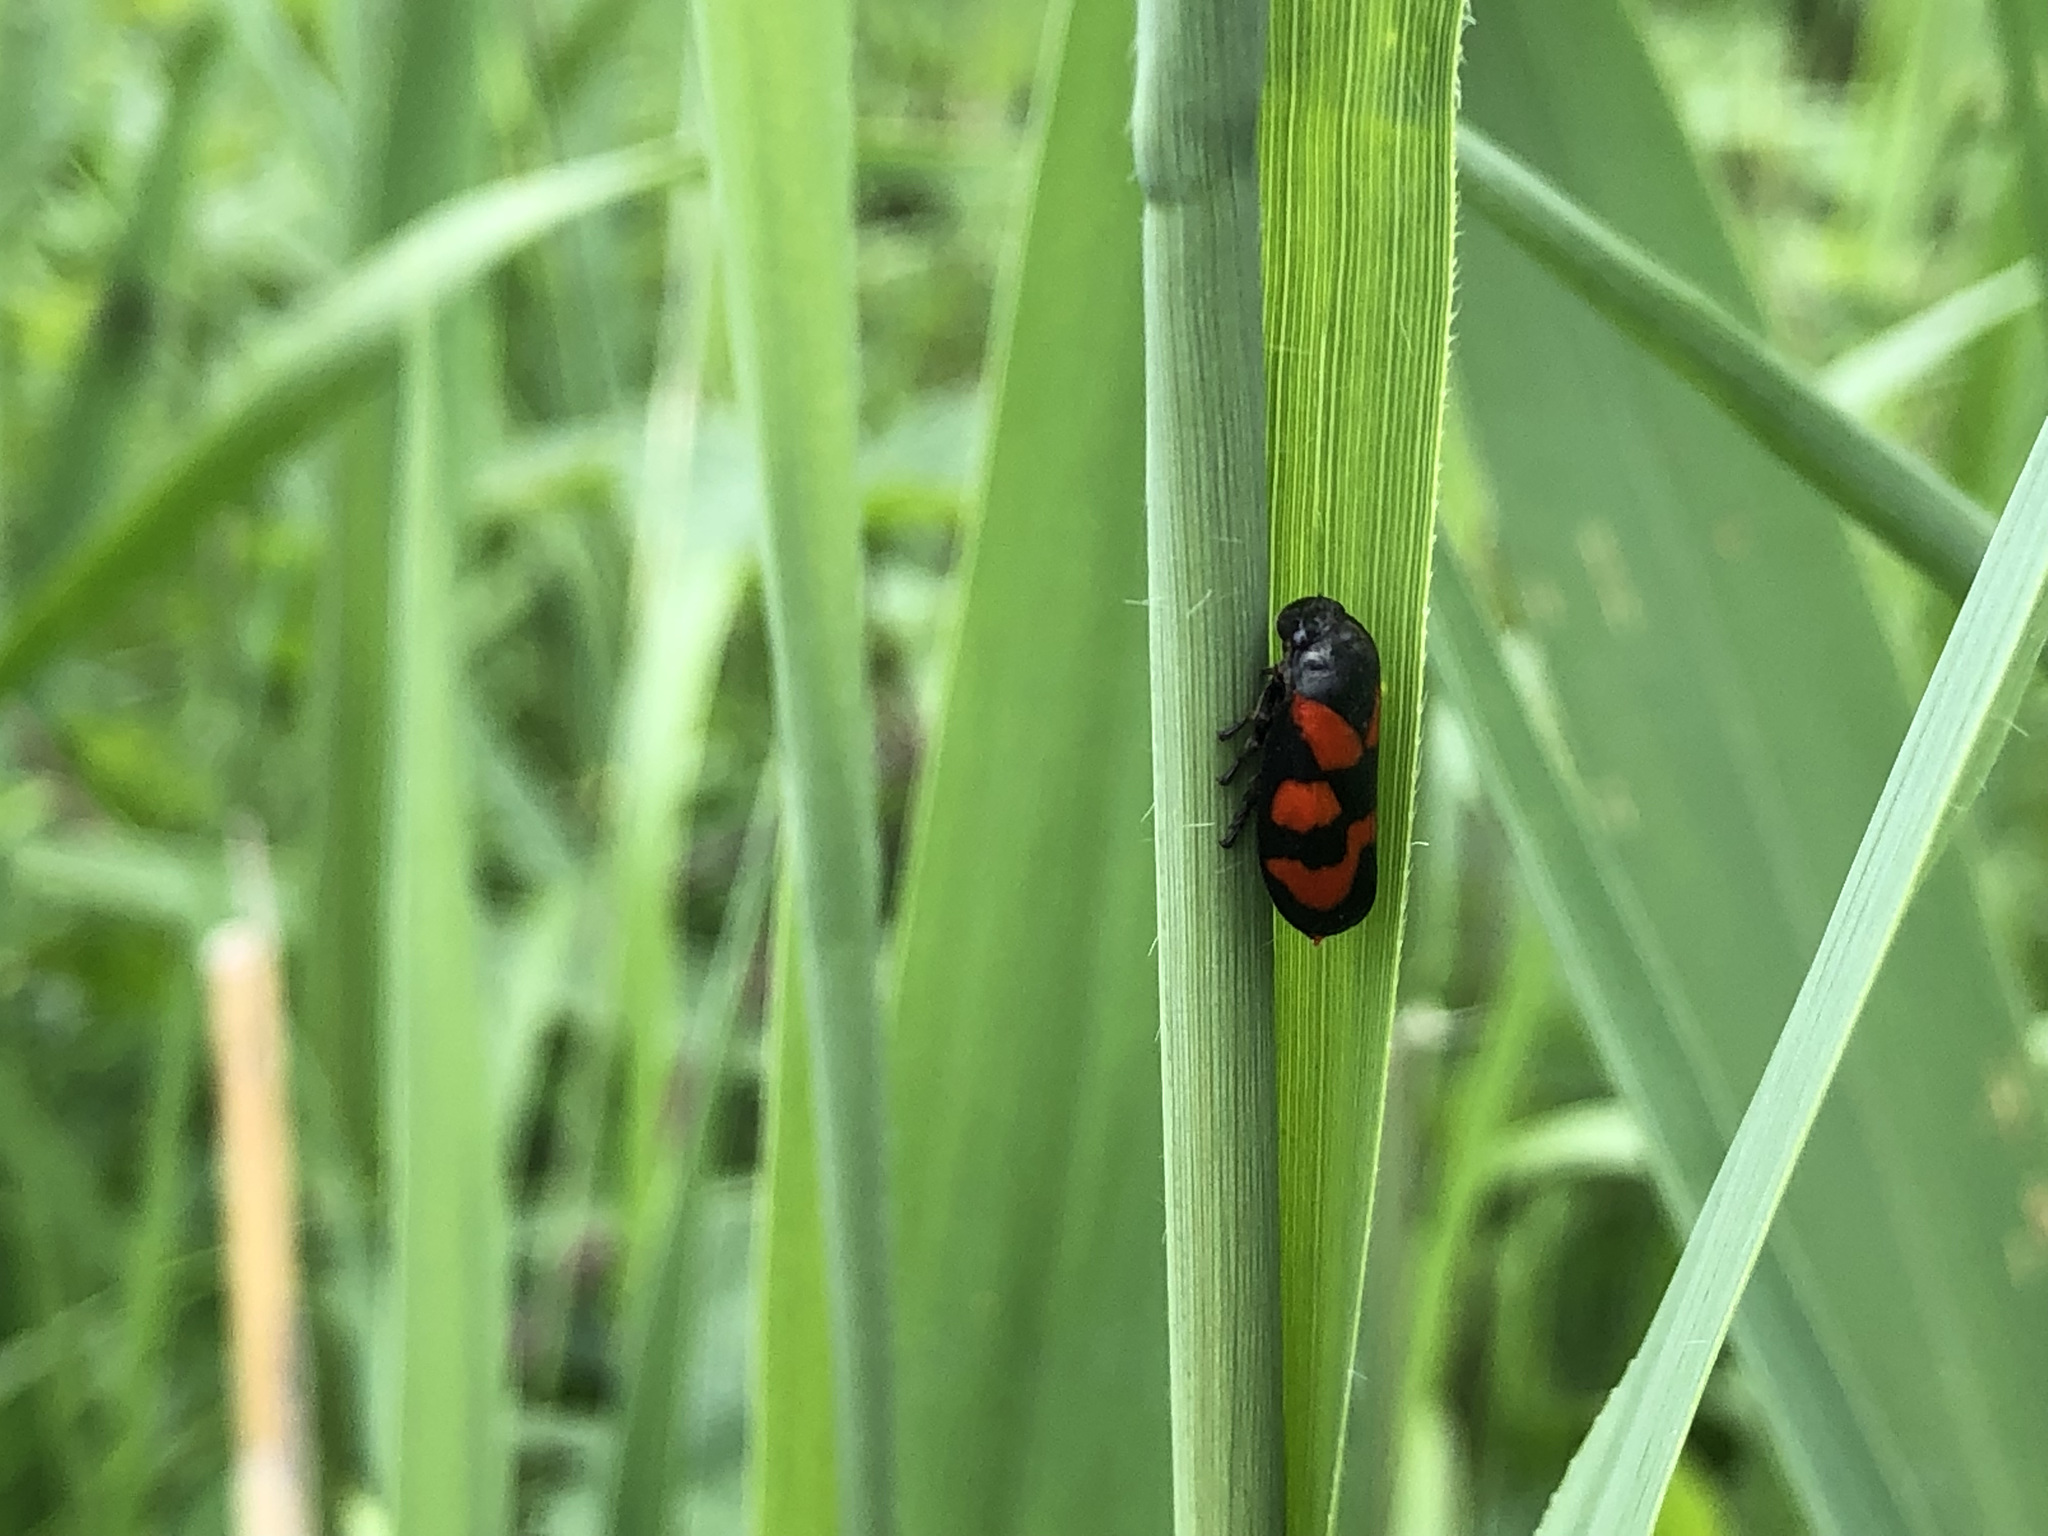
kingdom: Animalia
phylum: Arthropoda
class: Insecta
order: Hemiptera
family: Cercopidae
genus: Cercopis
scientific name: Cercopis vulnerata
